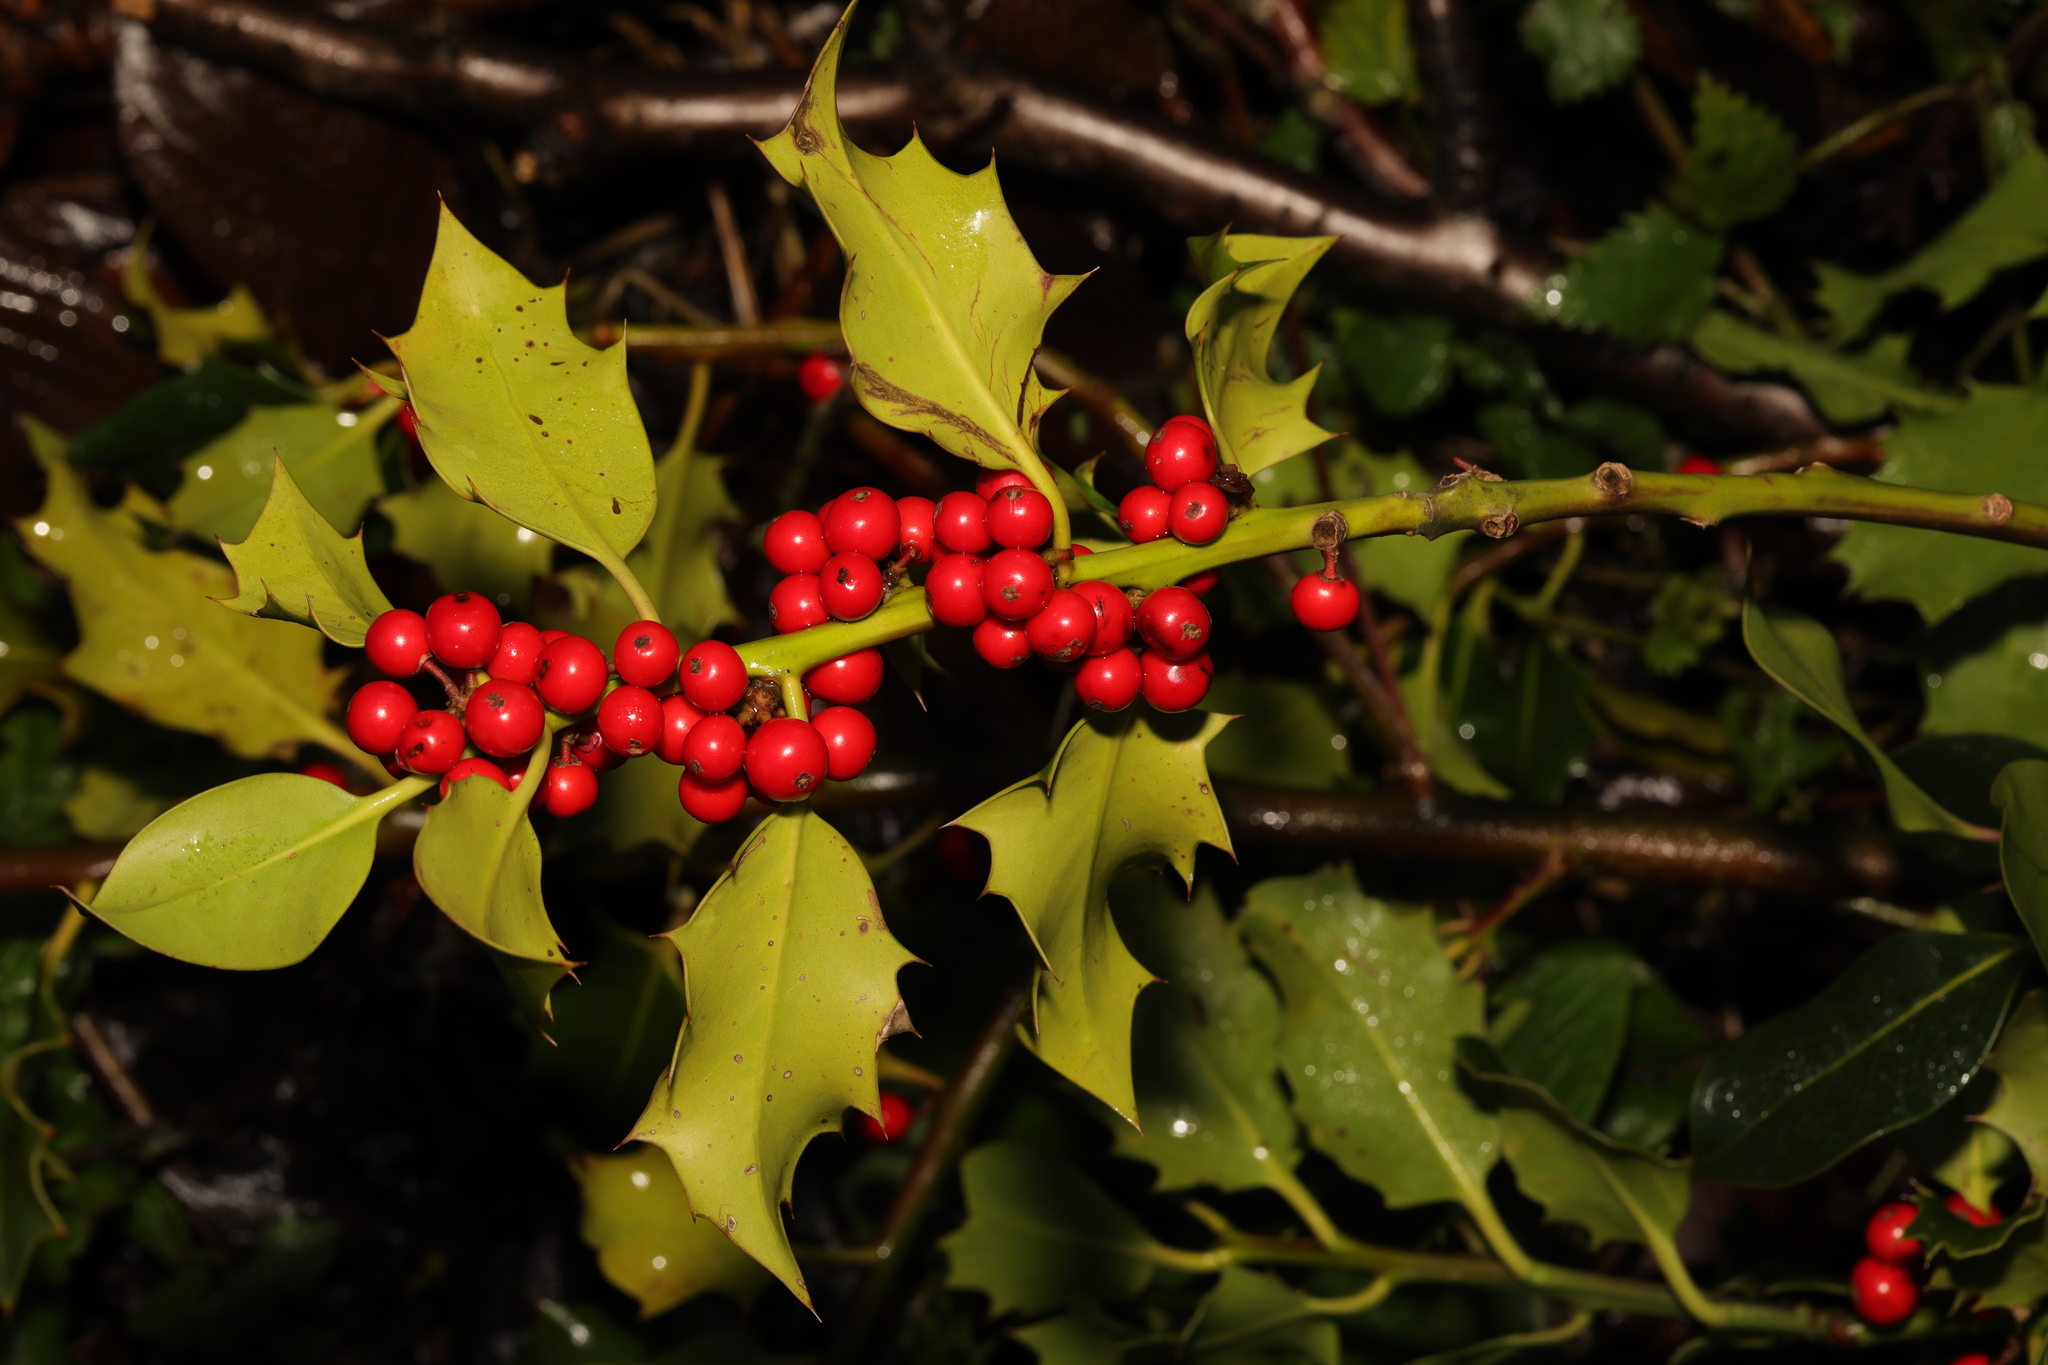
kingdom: Plantae
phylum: Tracheophyta
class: Magnoliopsida
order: Aquifoliales
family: Aquifoliaceae
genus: Ilex
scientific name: Ilex aquifolium
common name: English holly
